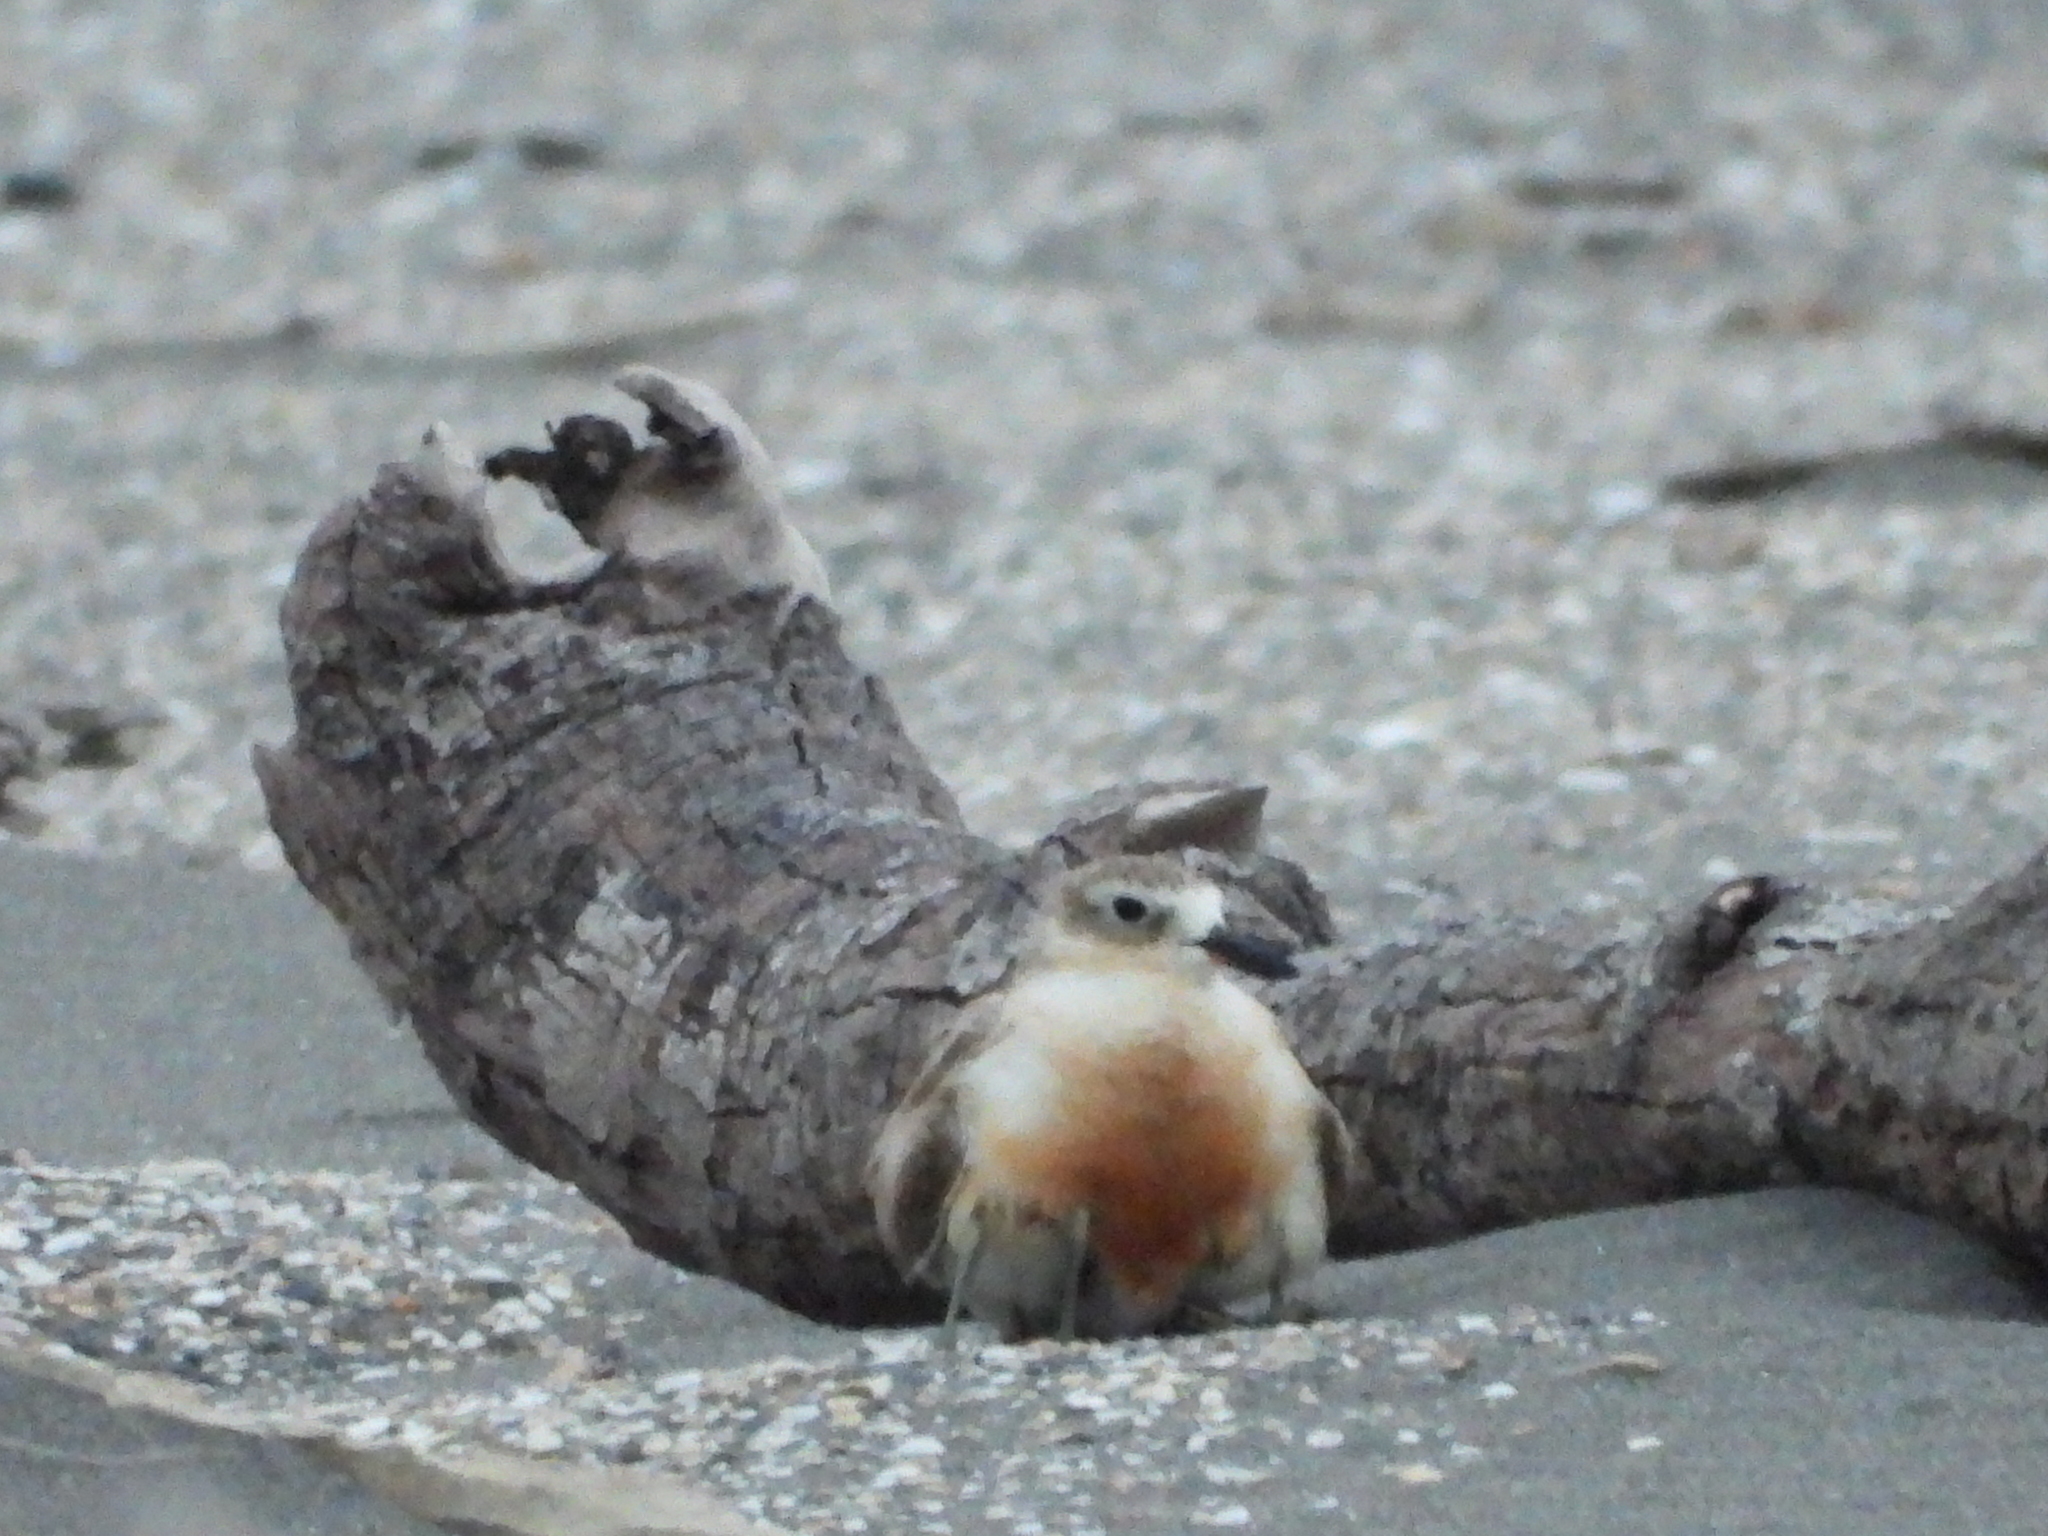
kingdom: Animalia
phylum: Chordata
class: Aves
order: Charadriiformes
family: Charadriidae
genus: Anarhynchus
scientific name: Anarhynchus
